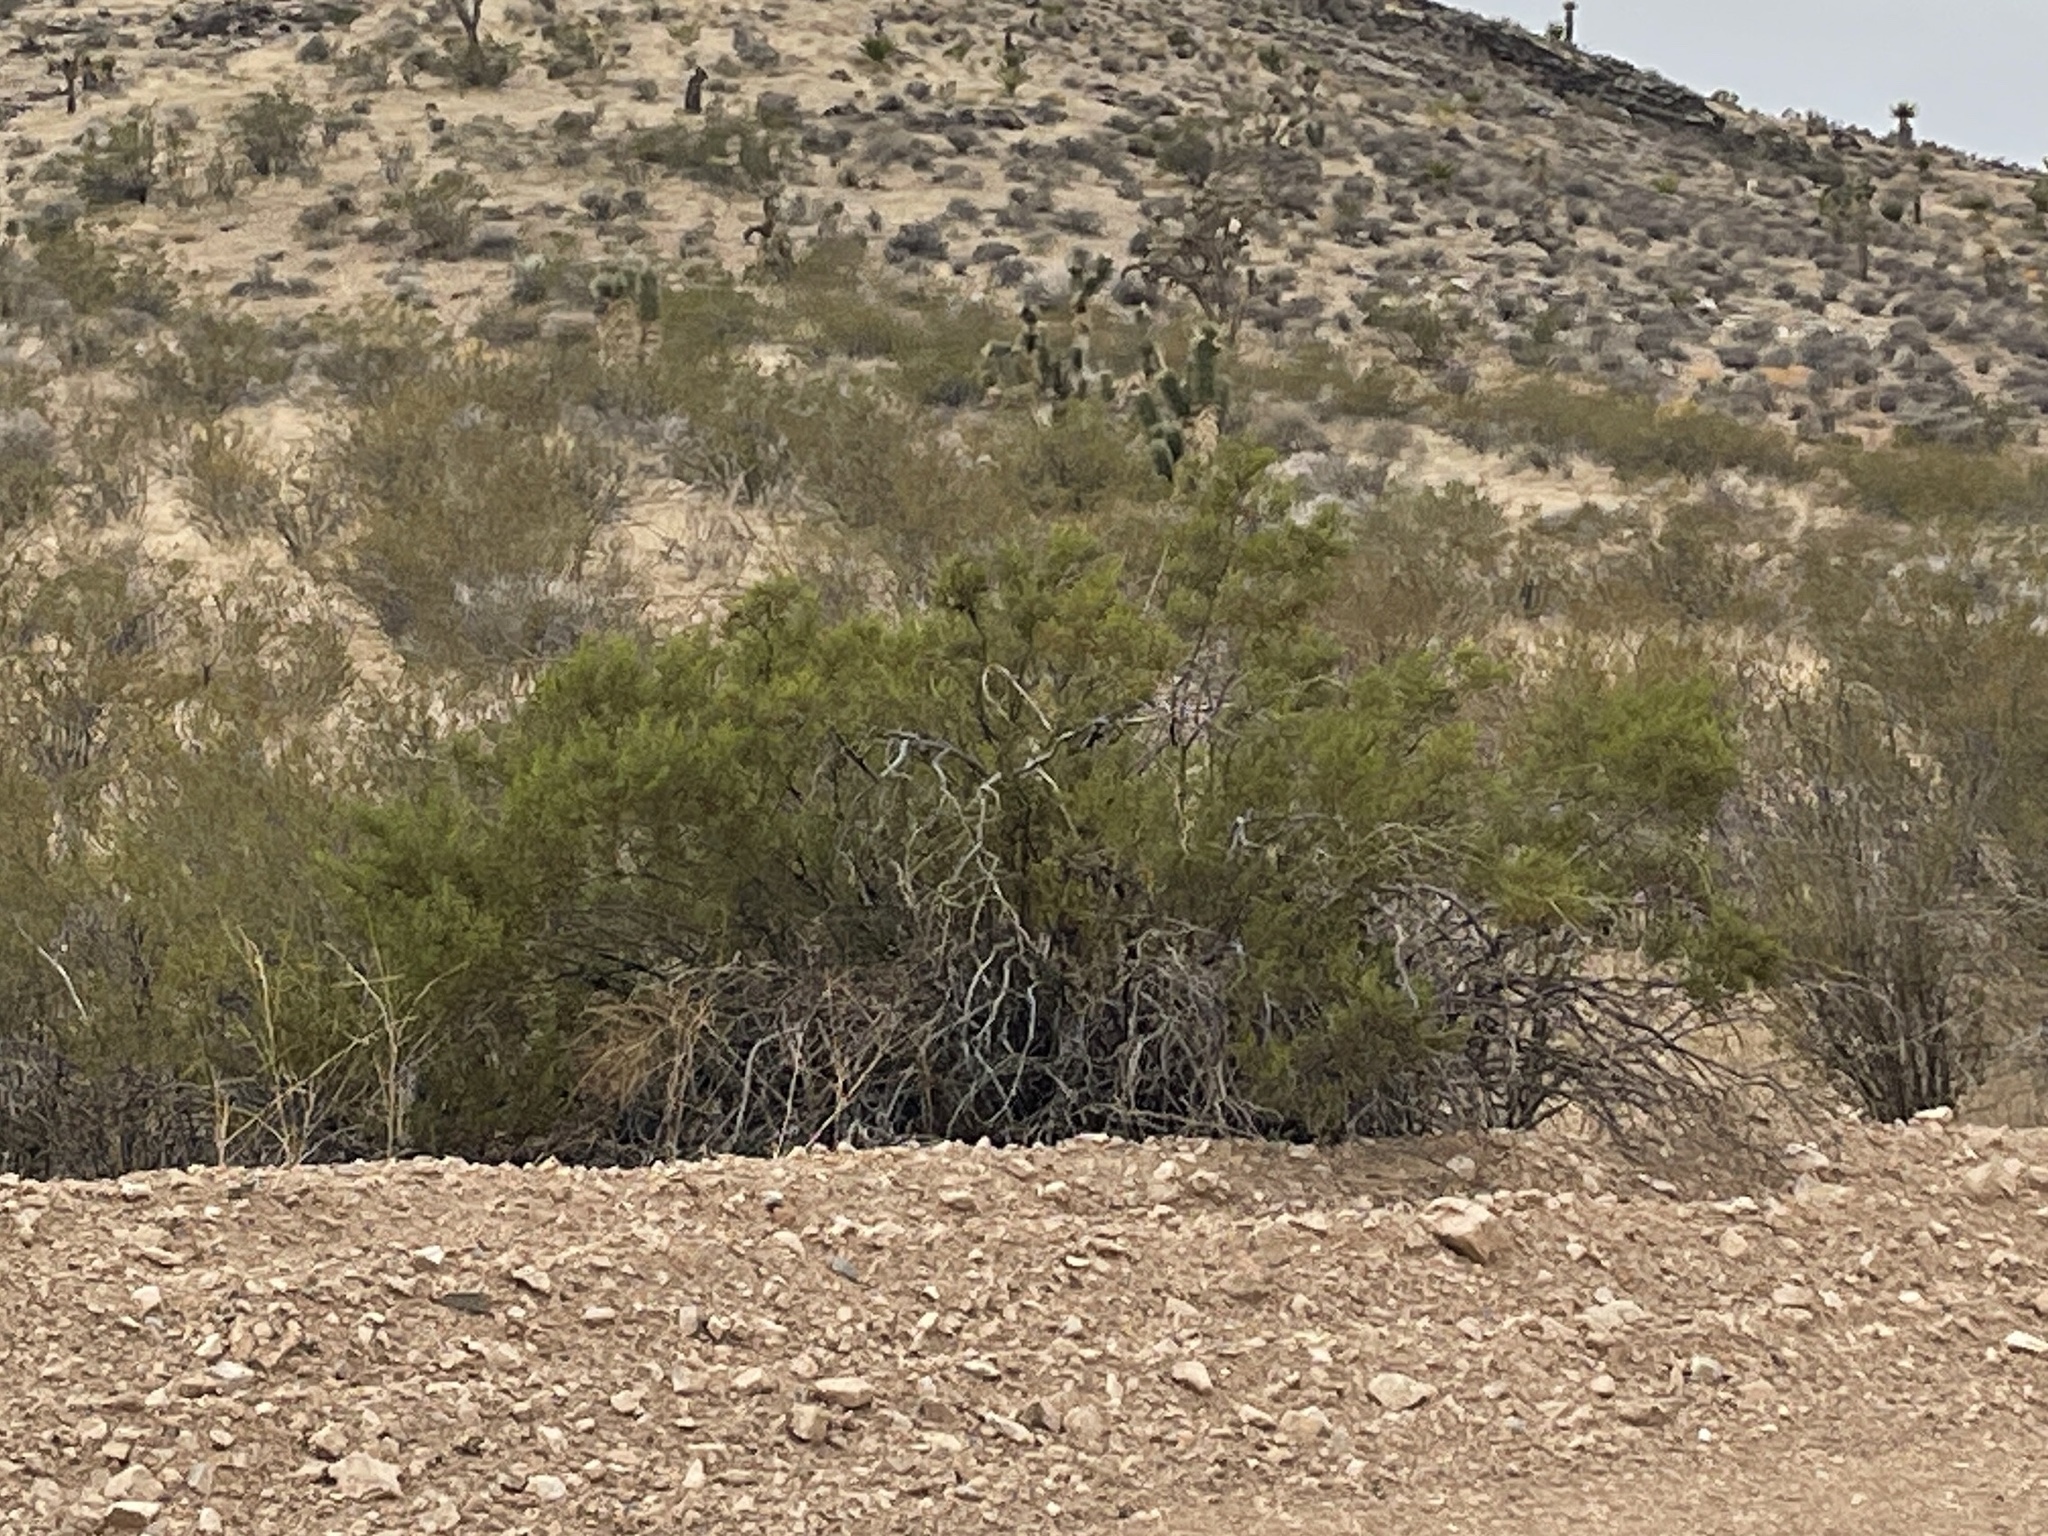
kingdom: Plantae
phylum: Tracheophyta
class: Magnoliopsida
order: Zygophyllales
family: Zygophyllaceae
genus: Larrea
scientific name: Larrea tridentata
